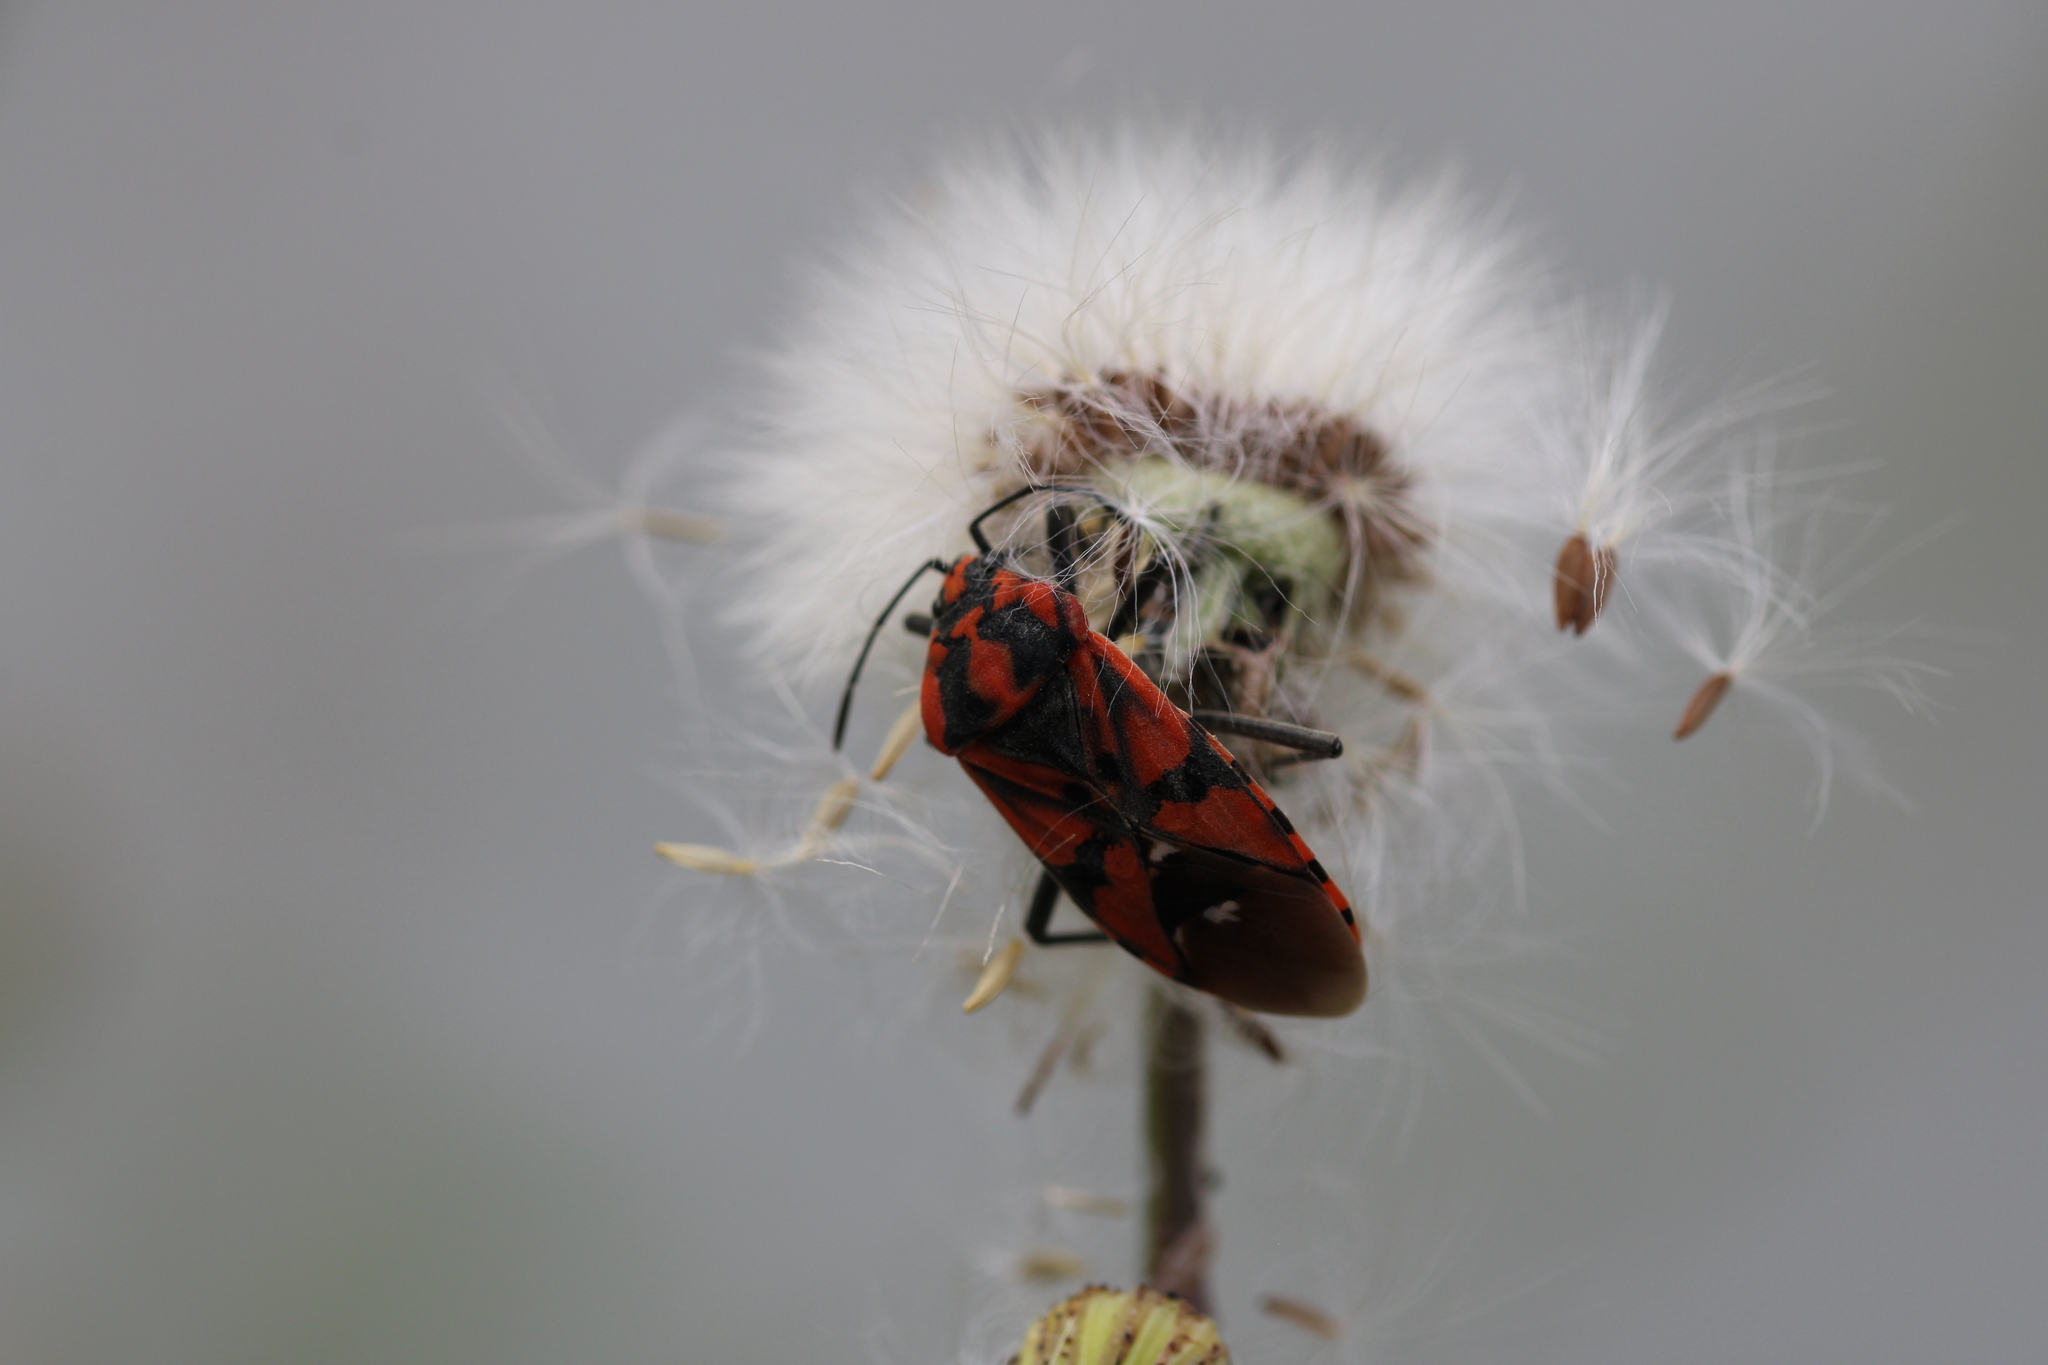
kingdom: Animalia
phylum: Arthropoda
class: Insecta
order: Hemiptera
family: Lygaeidae
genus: Spilostethus
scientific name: Spilostethus pandurus
